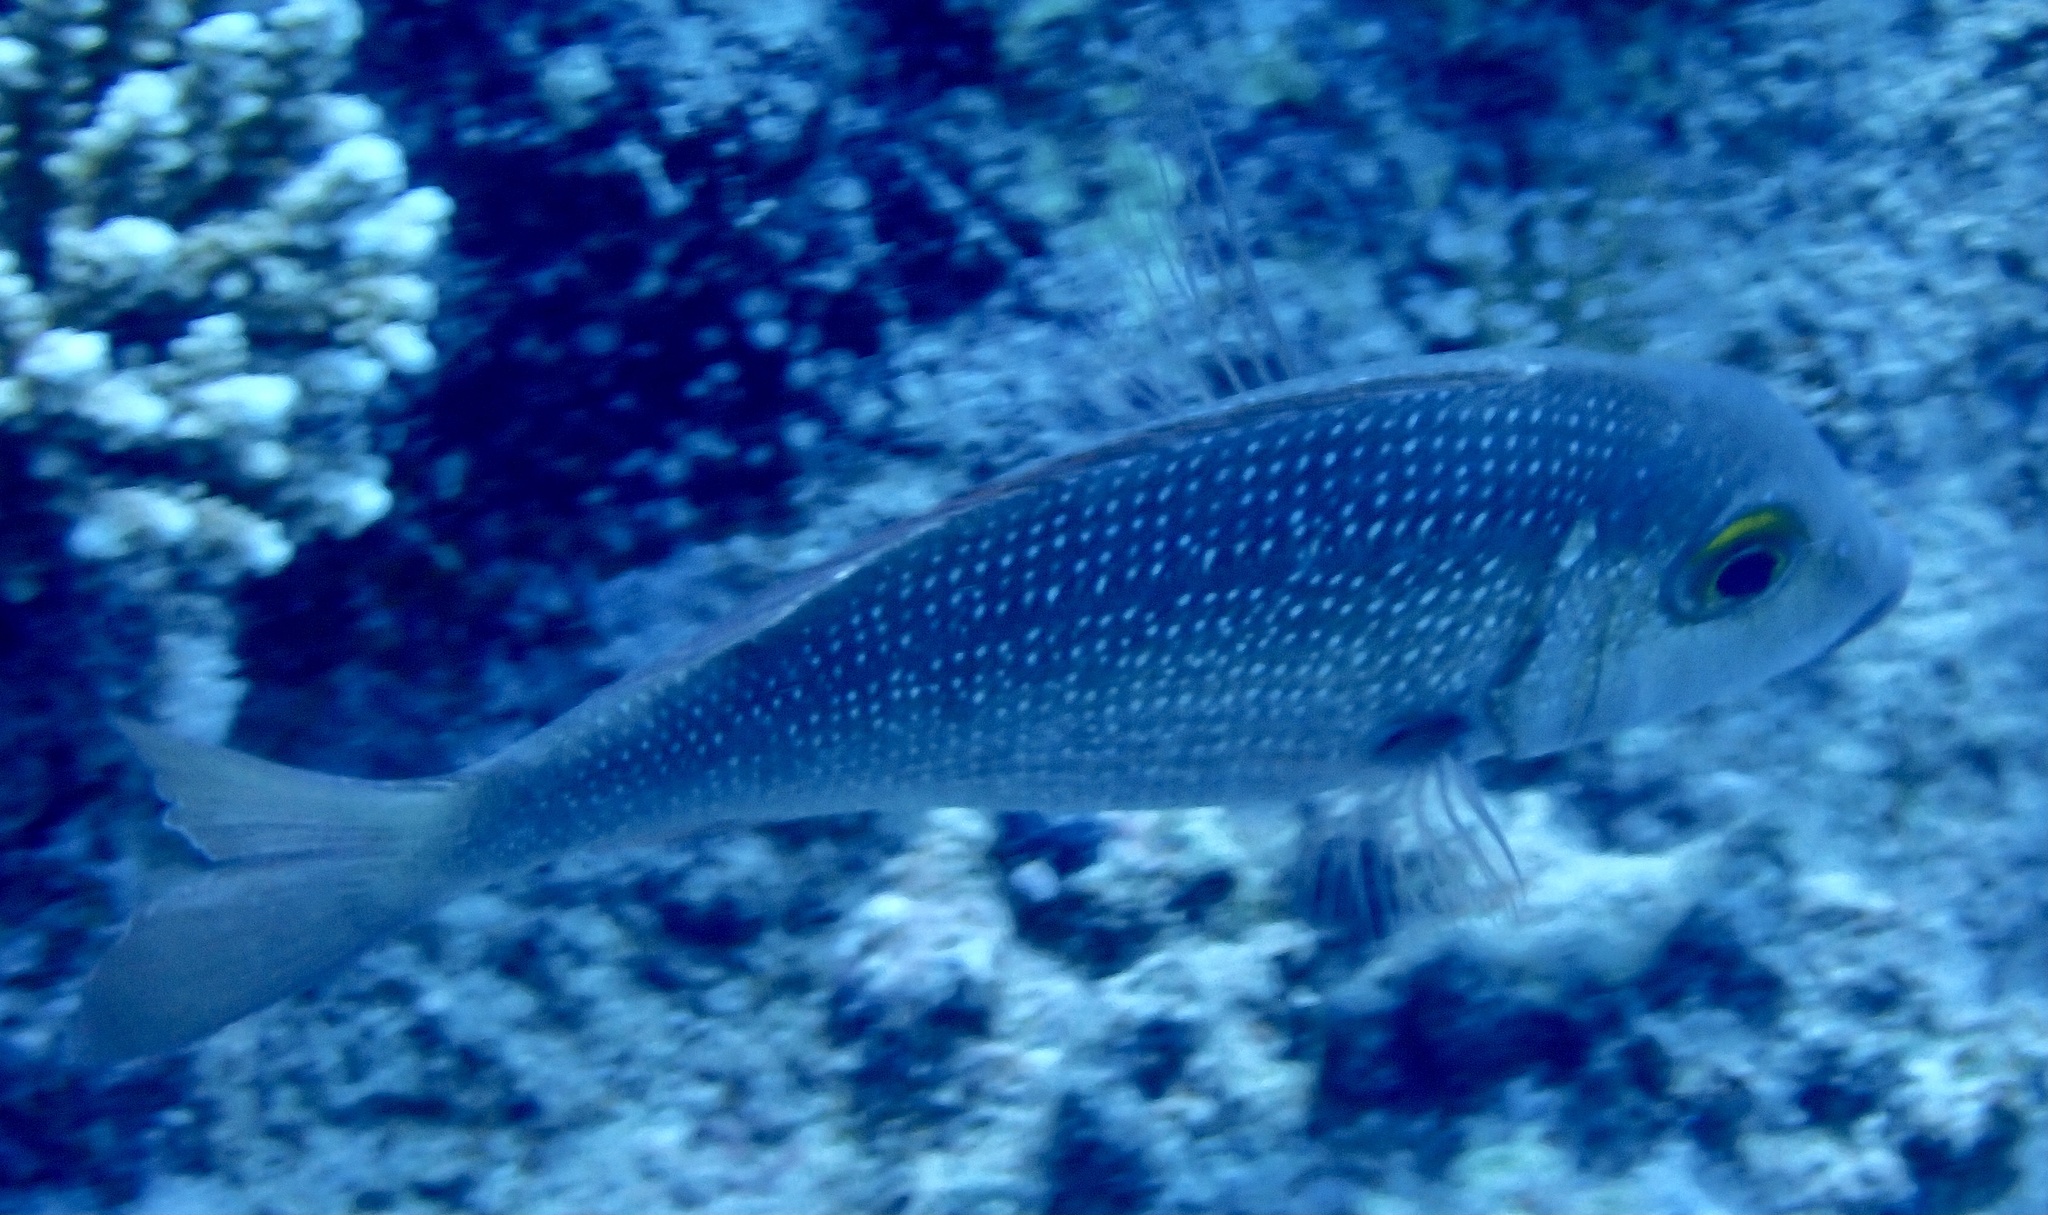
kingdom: Animalia
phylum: Chordata
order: Perciformes
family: Lethrinidae
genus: Lethrinus
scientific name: Lethrinus borbonicus
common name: Snubnose emperor
